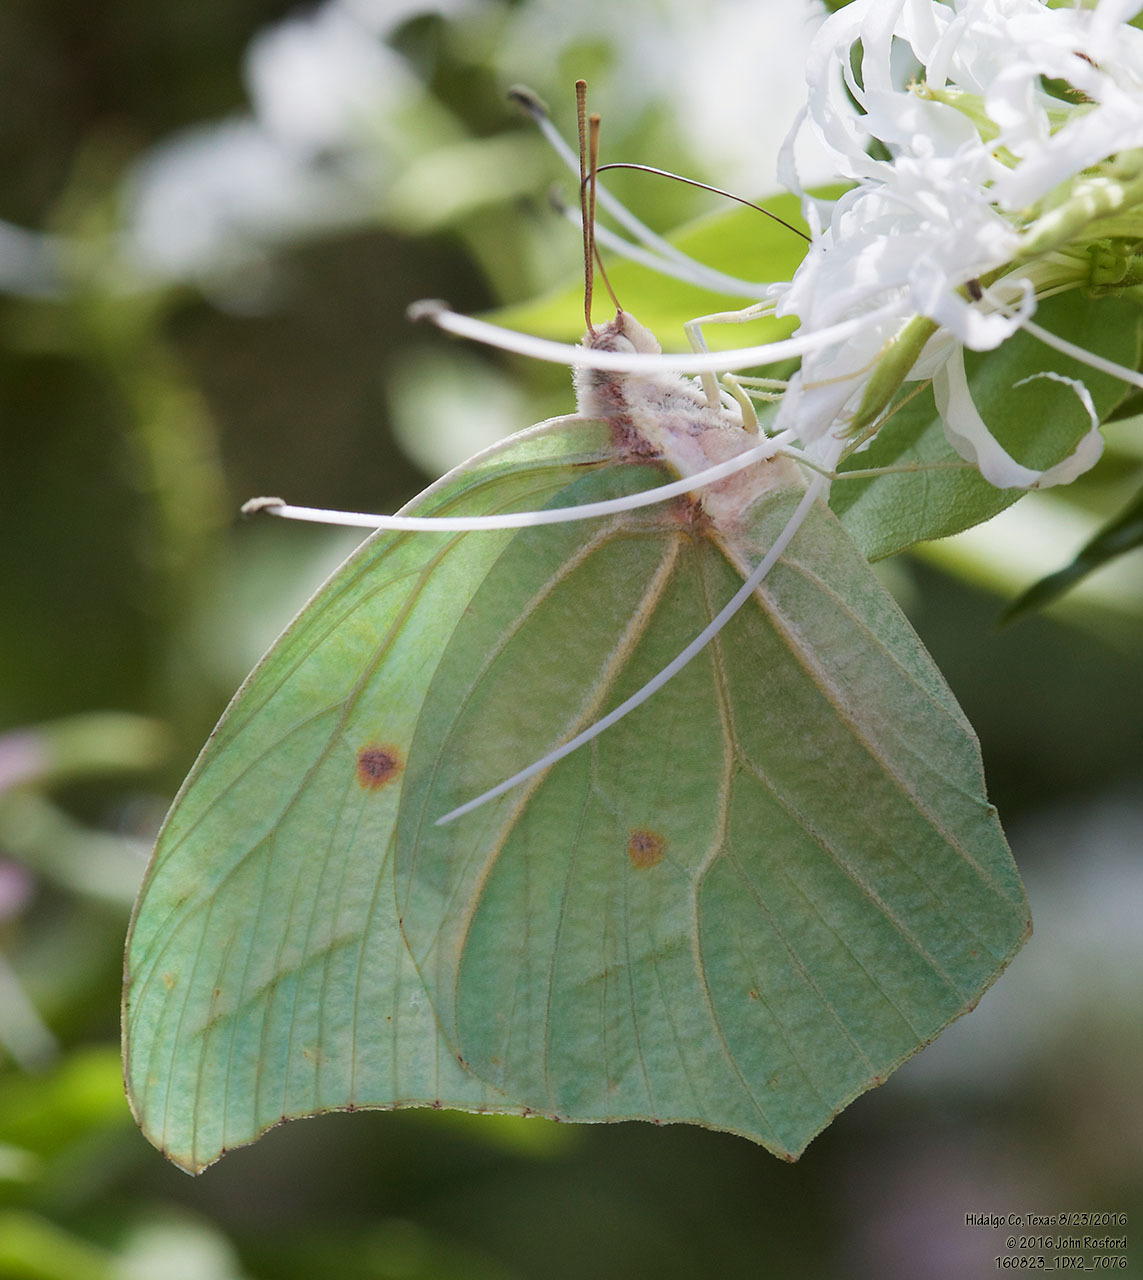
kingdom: Animalia
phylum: Arthropoda
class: Insecta
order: Lepidoptera
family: Pieridae
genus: Anteos
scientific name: Anteos clorinde
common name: White angled sulphur
